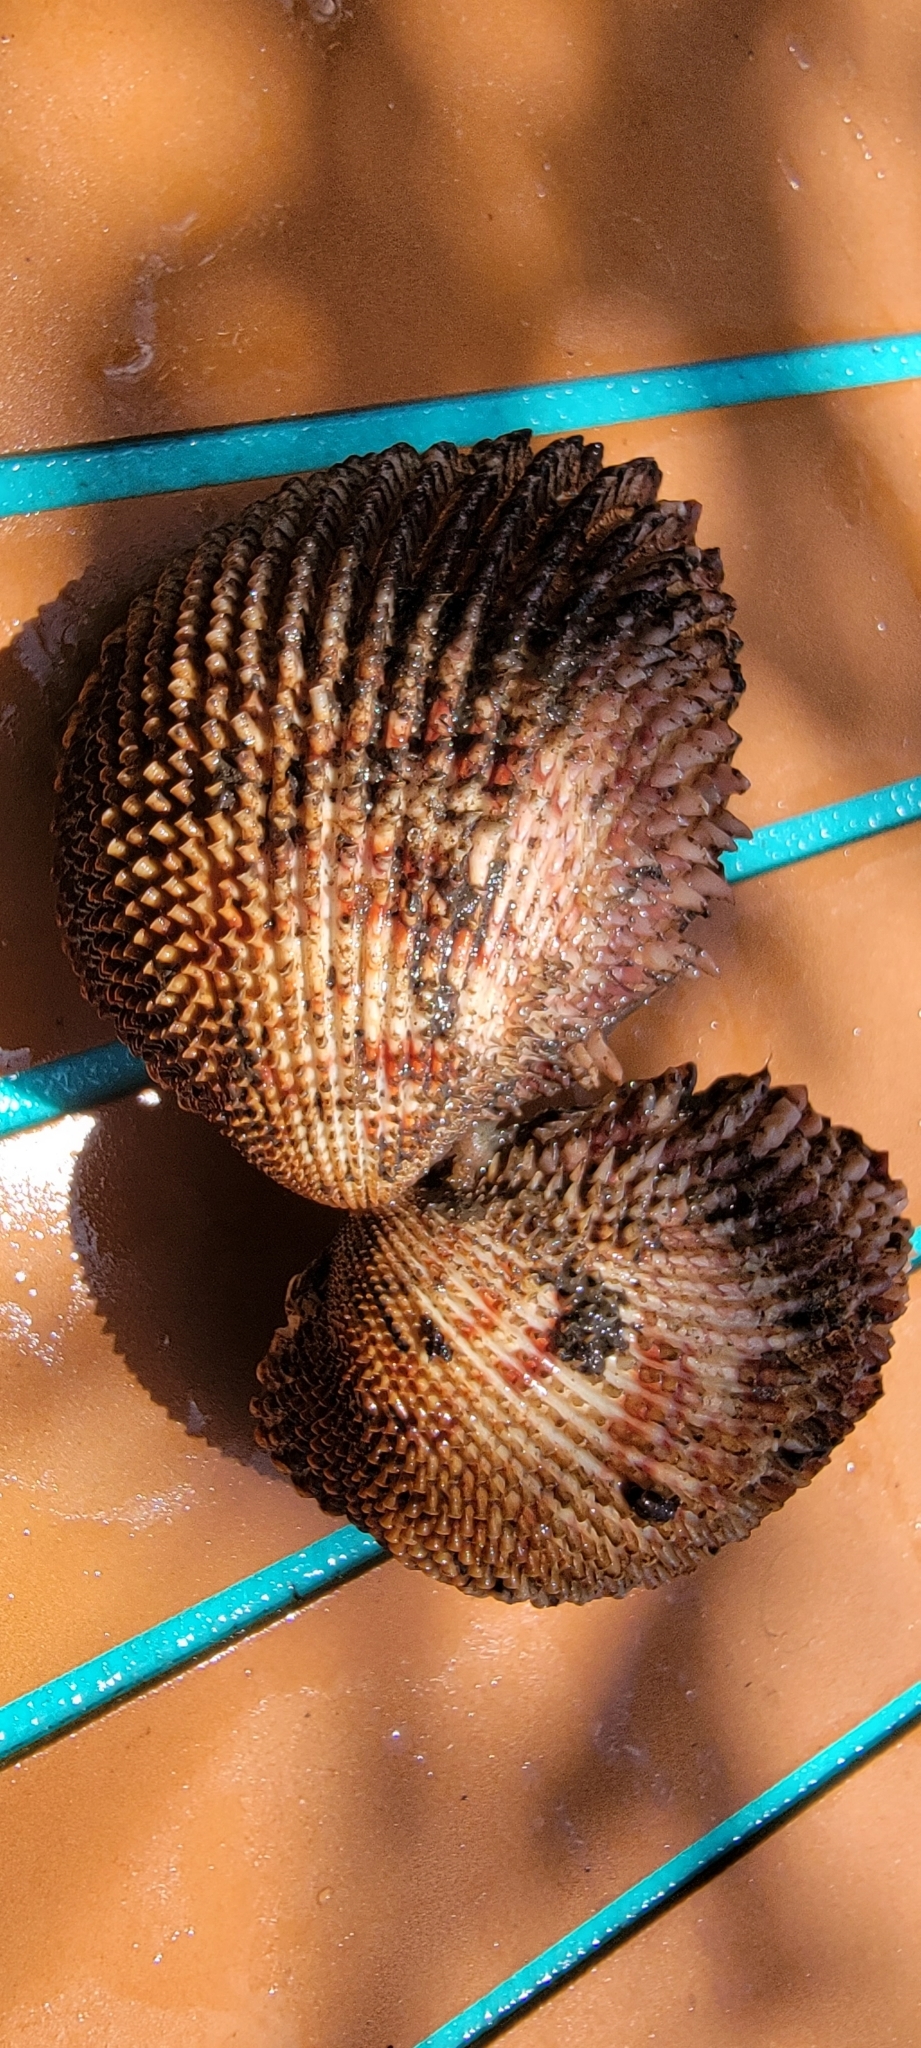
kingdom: Animalia
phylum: Mollusca
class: Bivalvia
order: Cardiida
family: Cardiidae
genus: Trachycardium
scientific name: Trachycardium egmontianum
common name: Florida pricklycockle
